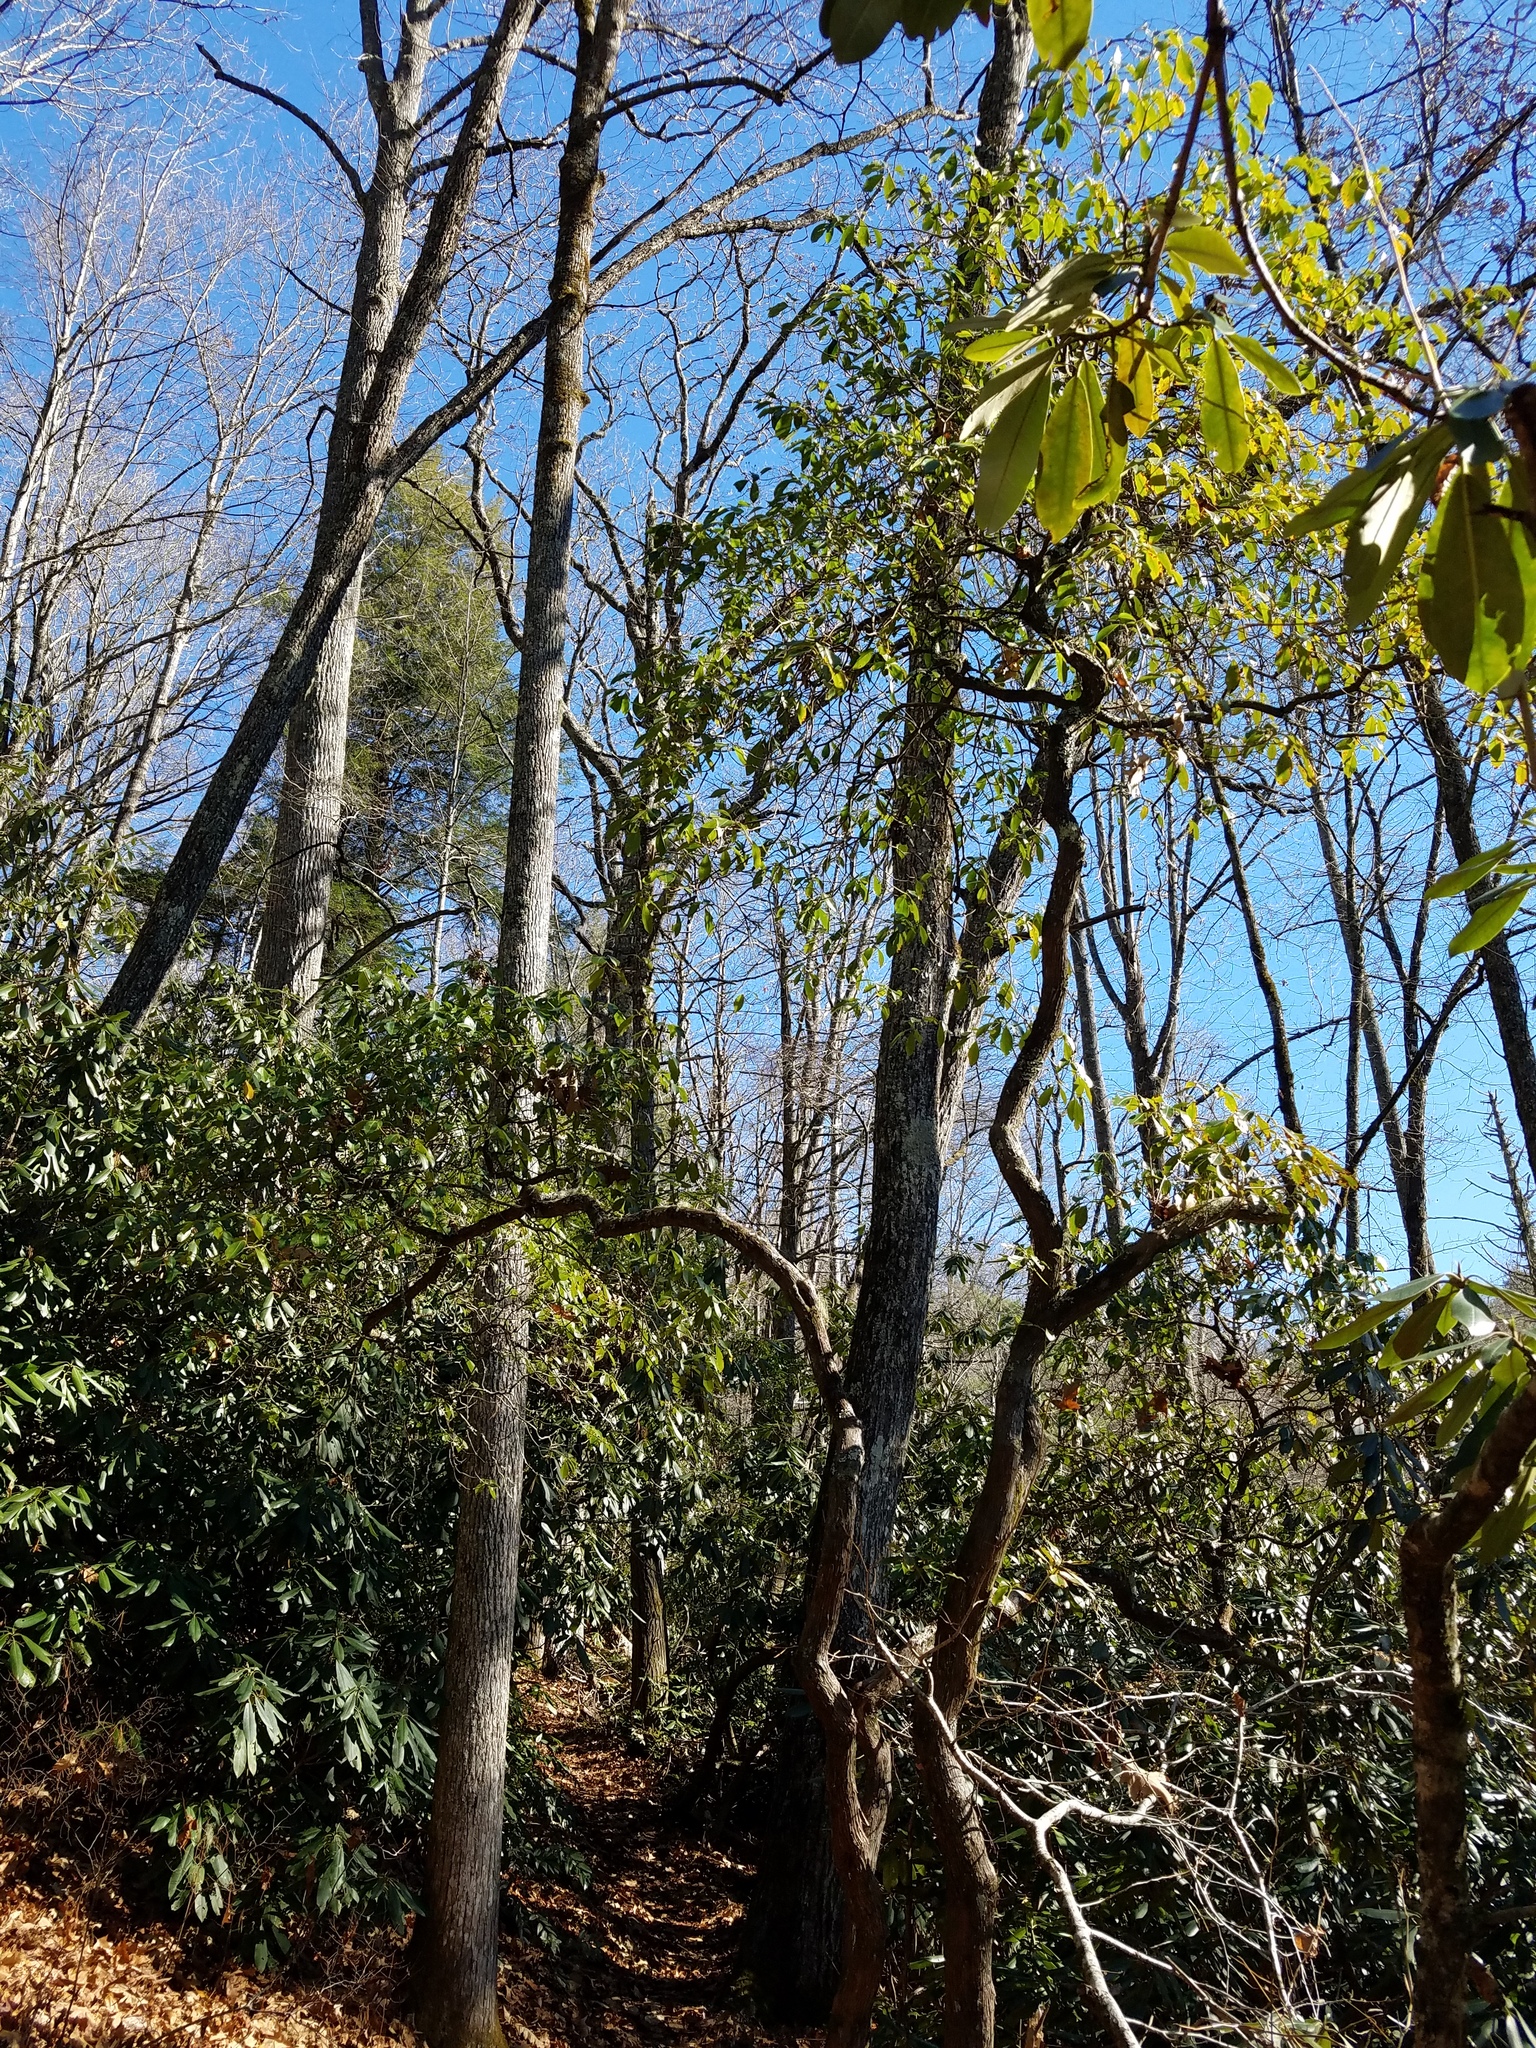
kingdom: Plantae
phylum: Tracheophyta
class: Magnoliopsida
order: Ericales
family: Ericaceae
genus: Kalmia
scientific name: Kalmia latifolia
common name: Mountain-laurel
